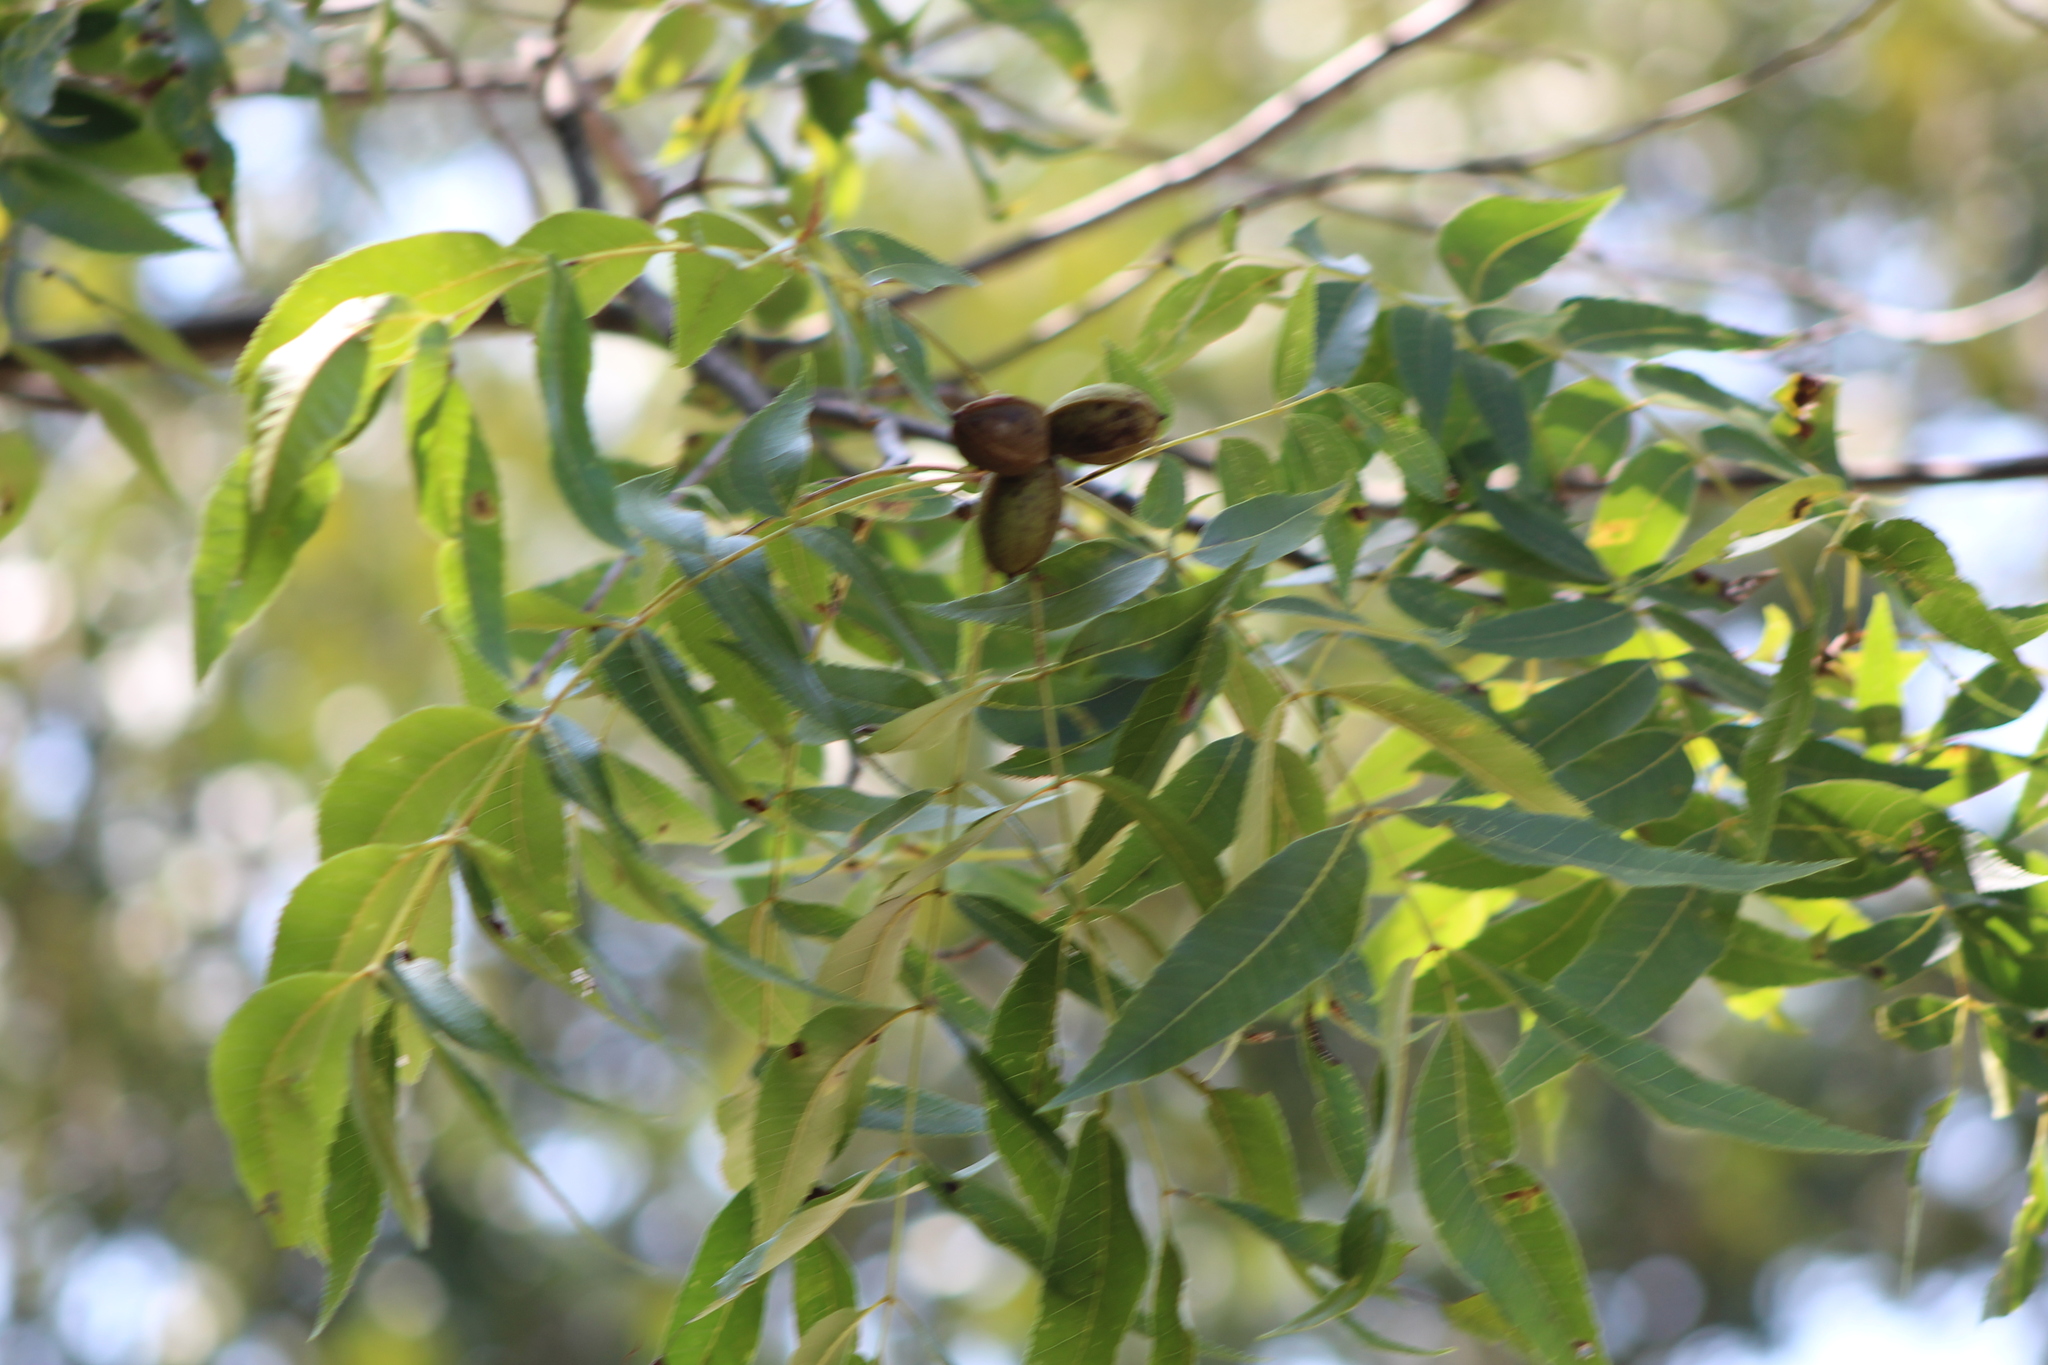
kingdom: Plantae
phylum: Tracheophyta
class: Magnoliopsida
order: Fagales
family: Juglandaceae
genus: Carya
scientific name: Carya illinoinensis
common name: Pecan
